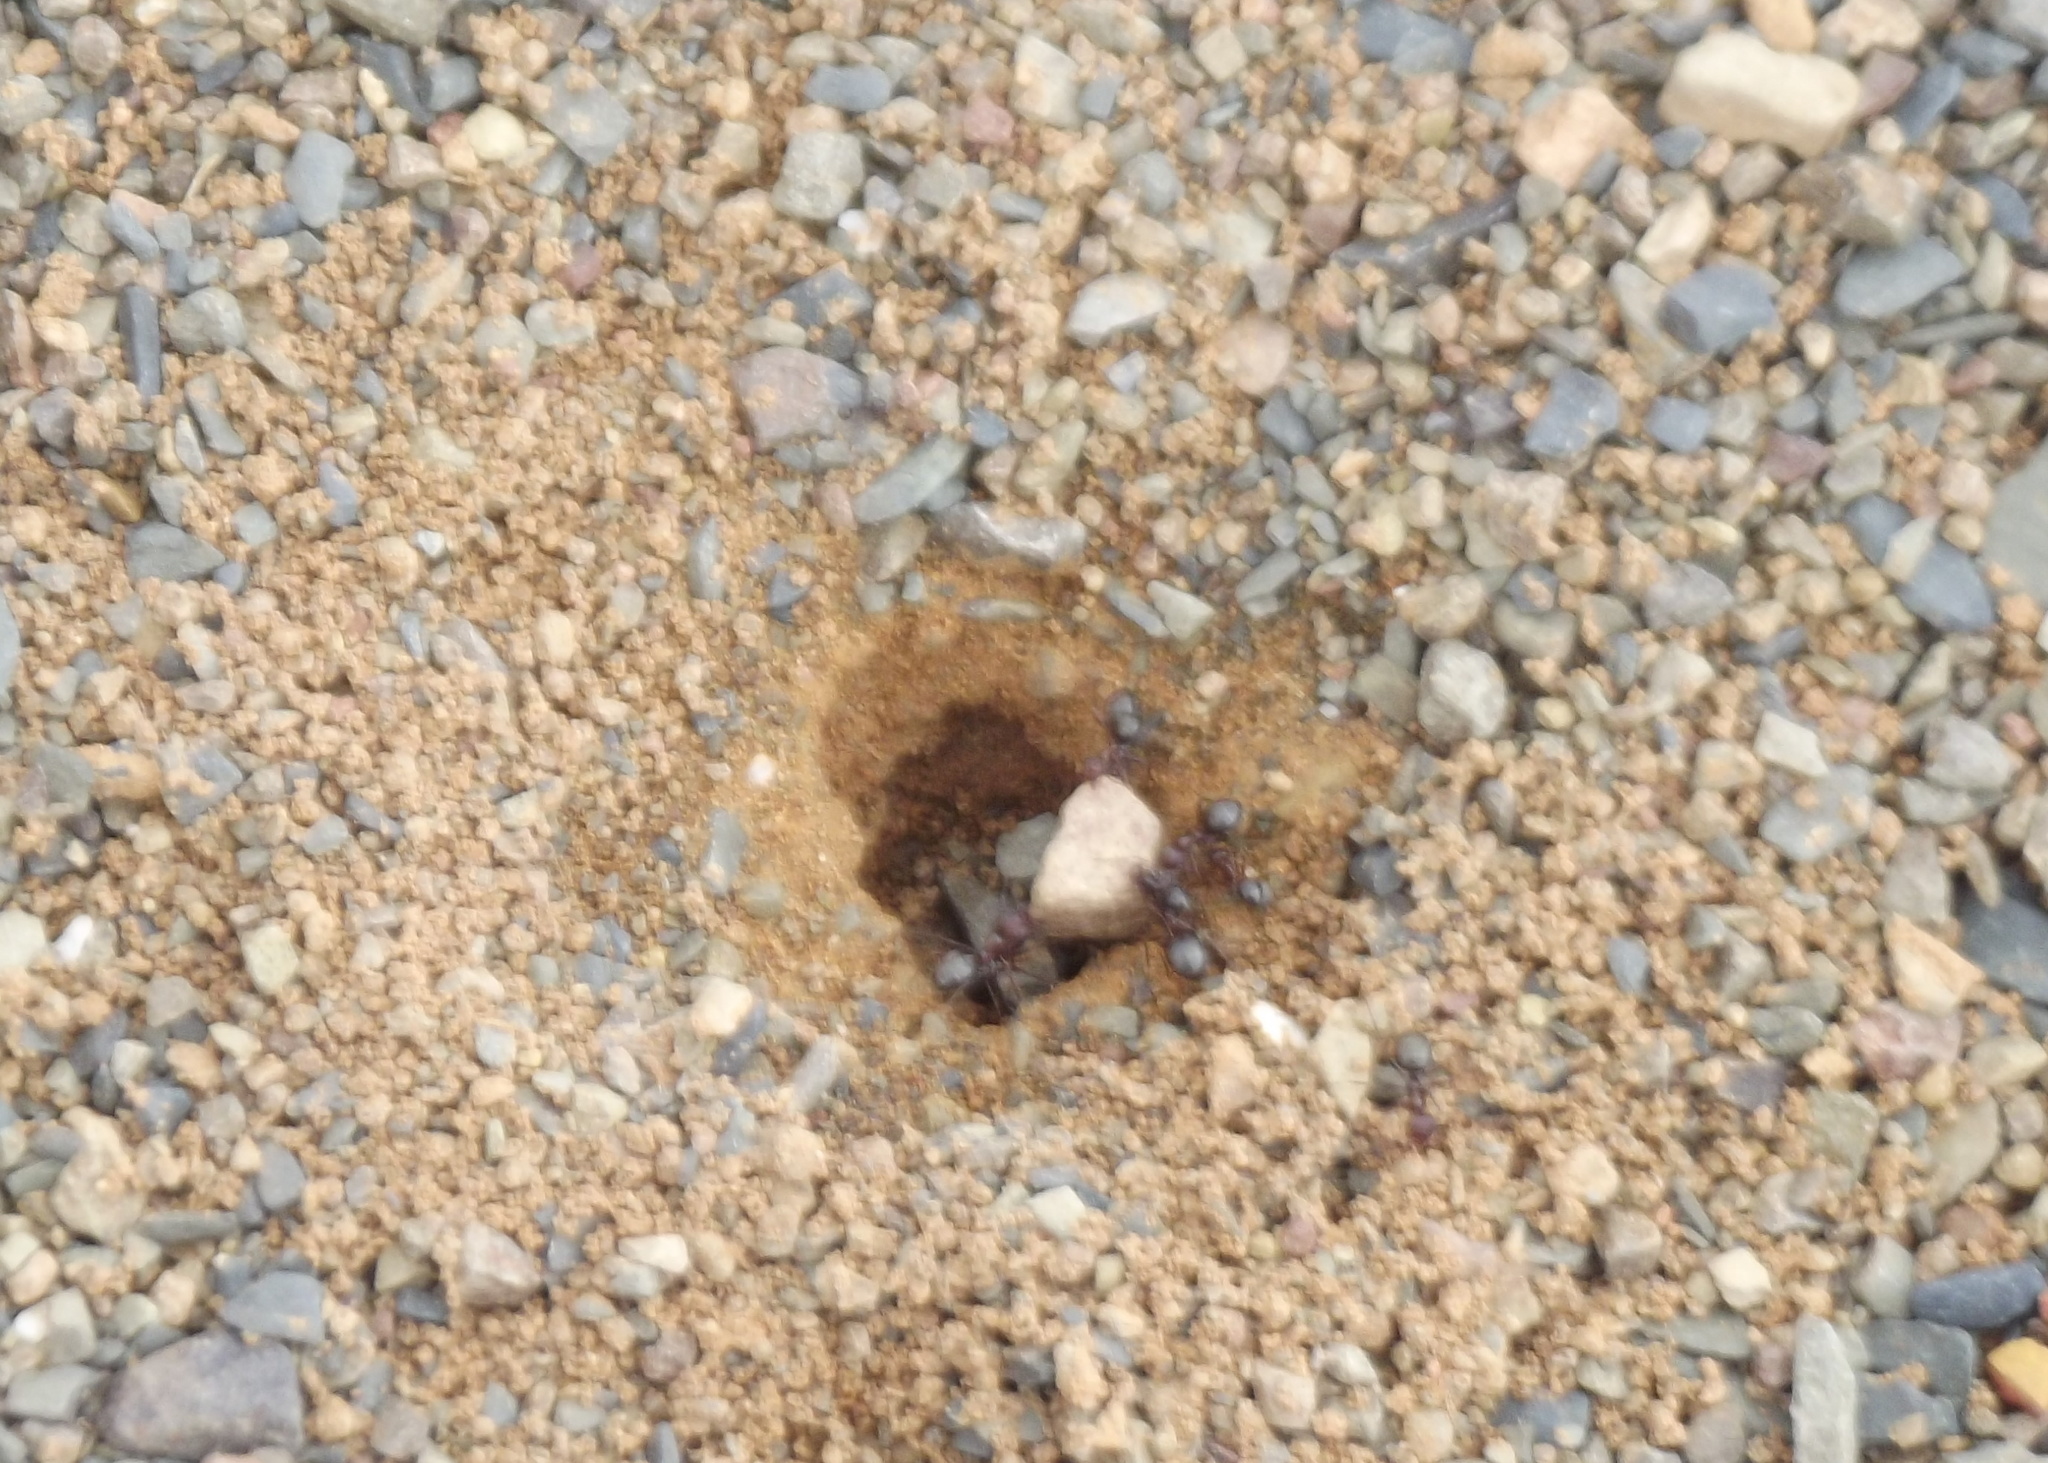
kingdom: Animalia
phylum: Arthropoda
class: Insecta
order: Hymenoptera
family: Formicidae
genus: Anoplolepis
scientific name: Anoplolepis steingroeveri
